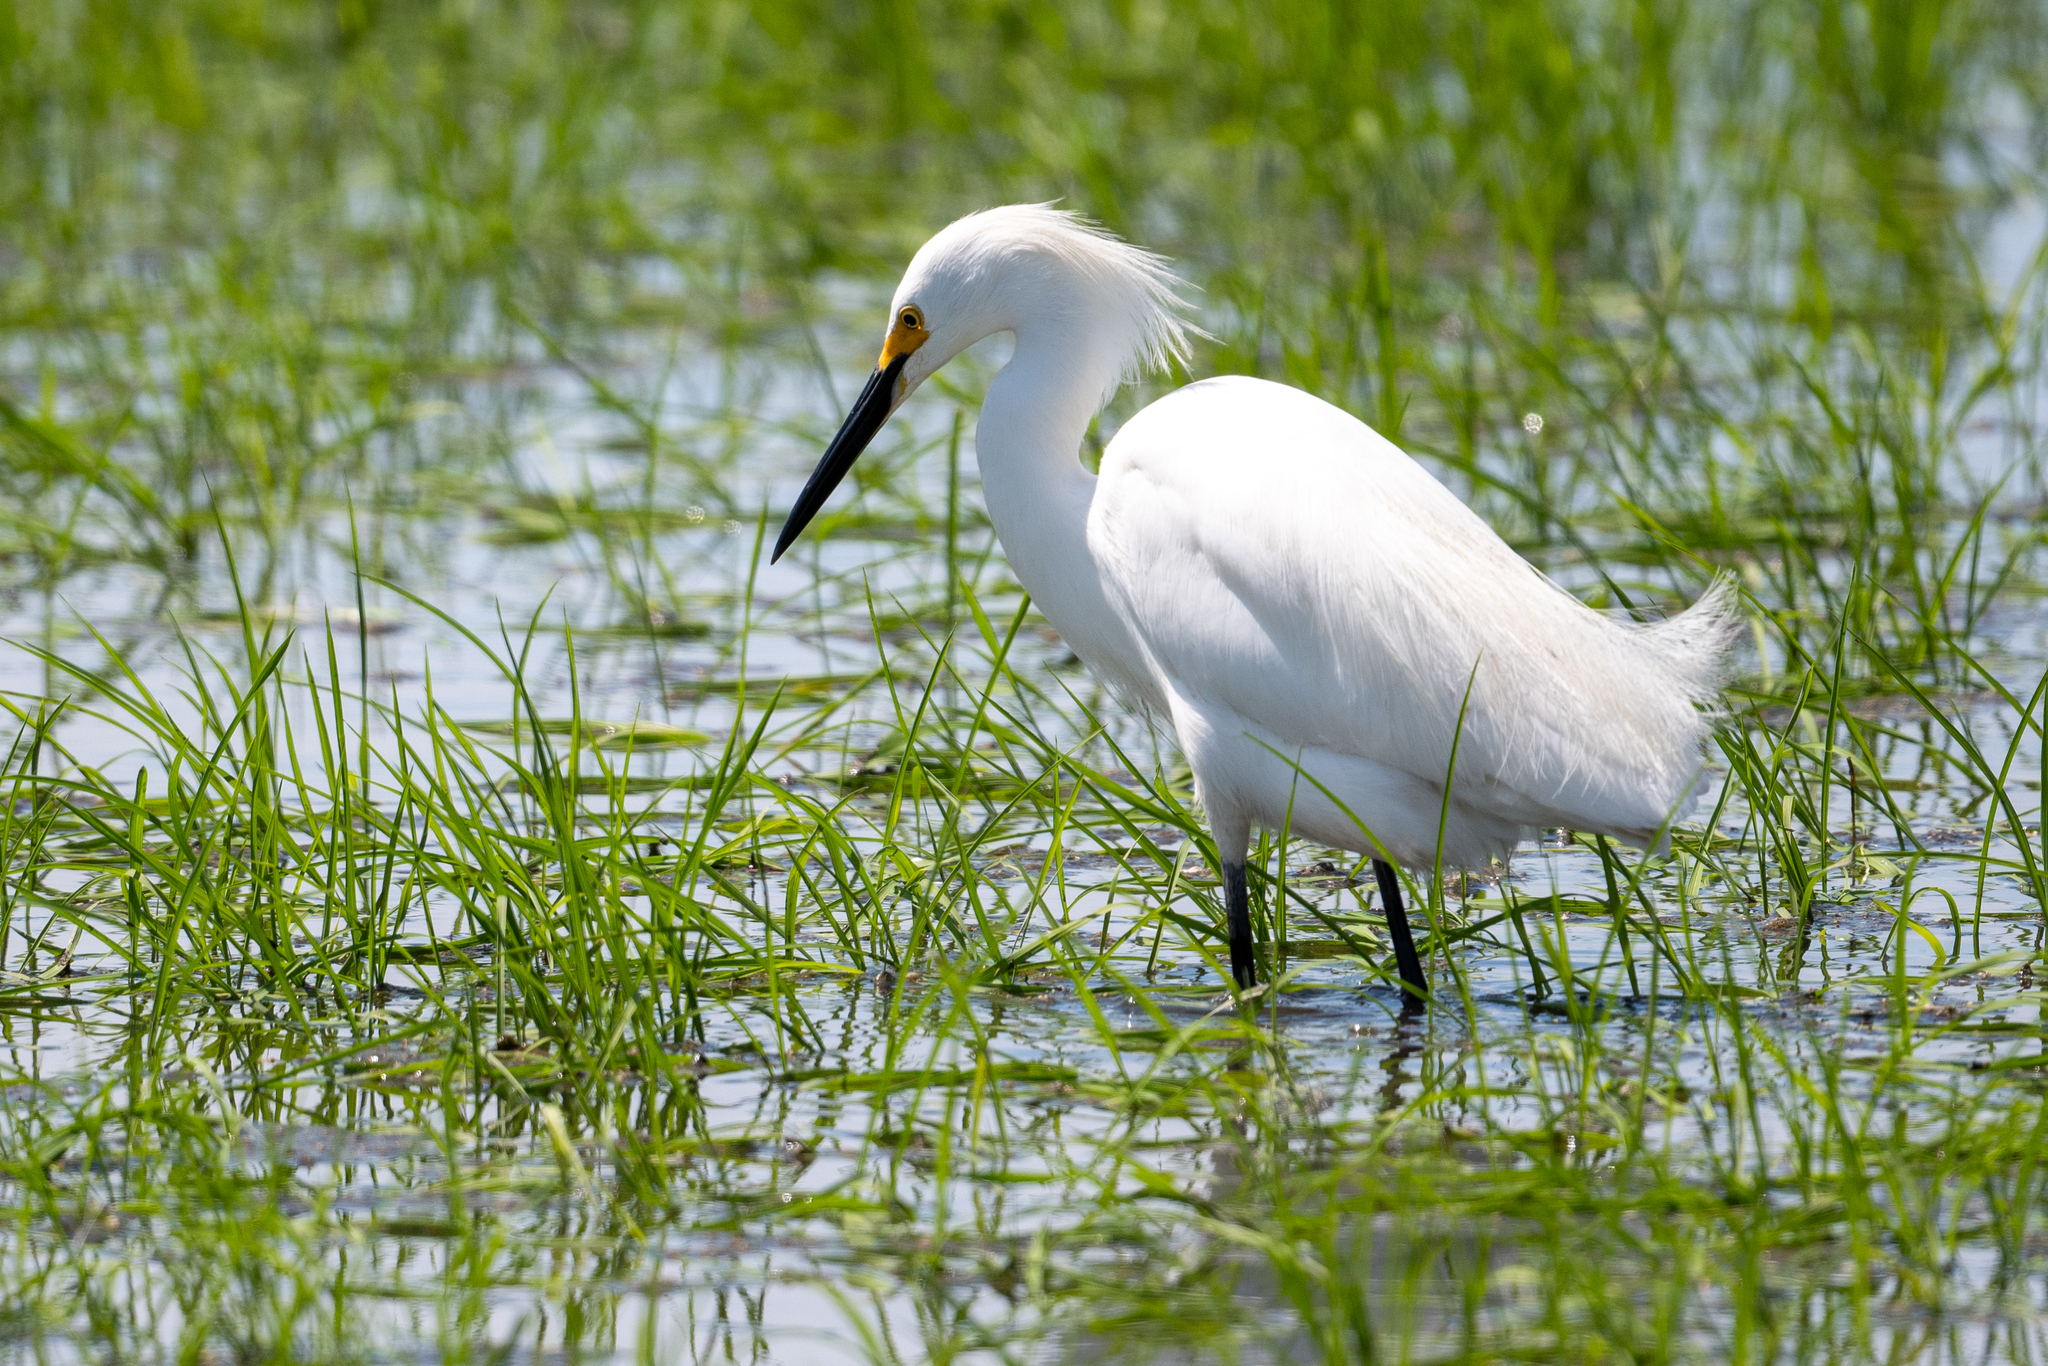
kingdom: Animalia
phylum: Chordata
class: Aves
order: Pelecaniformes
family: Ardeidae
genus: Egretta
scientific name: Egretta thula
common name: Snowy egret
